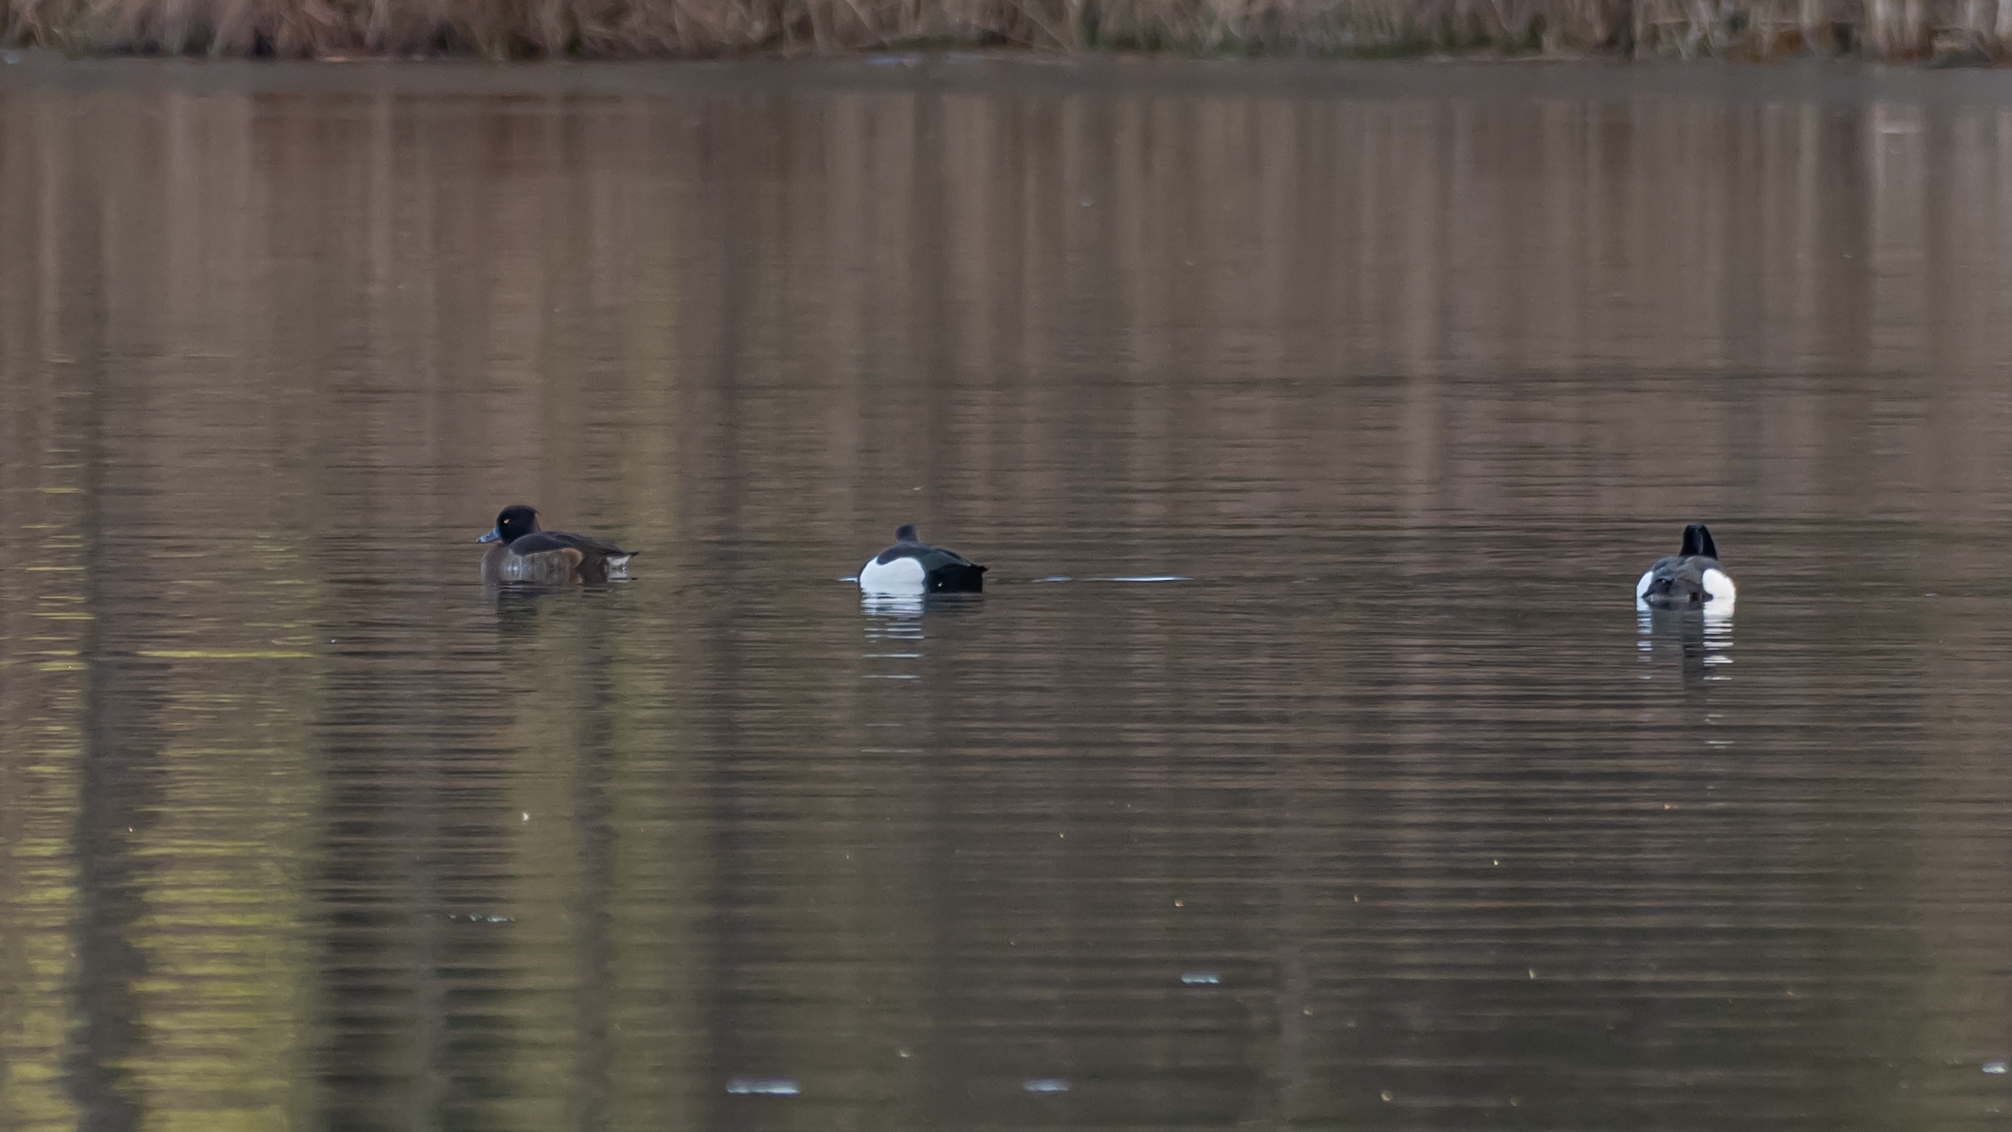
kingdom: Animalia
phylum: Chordata
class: Aves
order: Anseriformes
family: Anatidae
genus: Aythya
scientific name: Aythya fuligula
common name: Tufted duck
